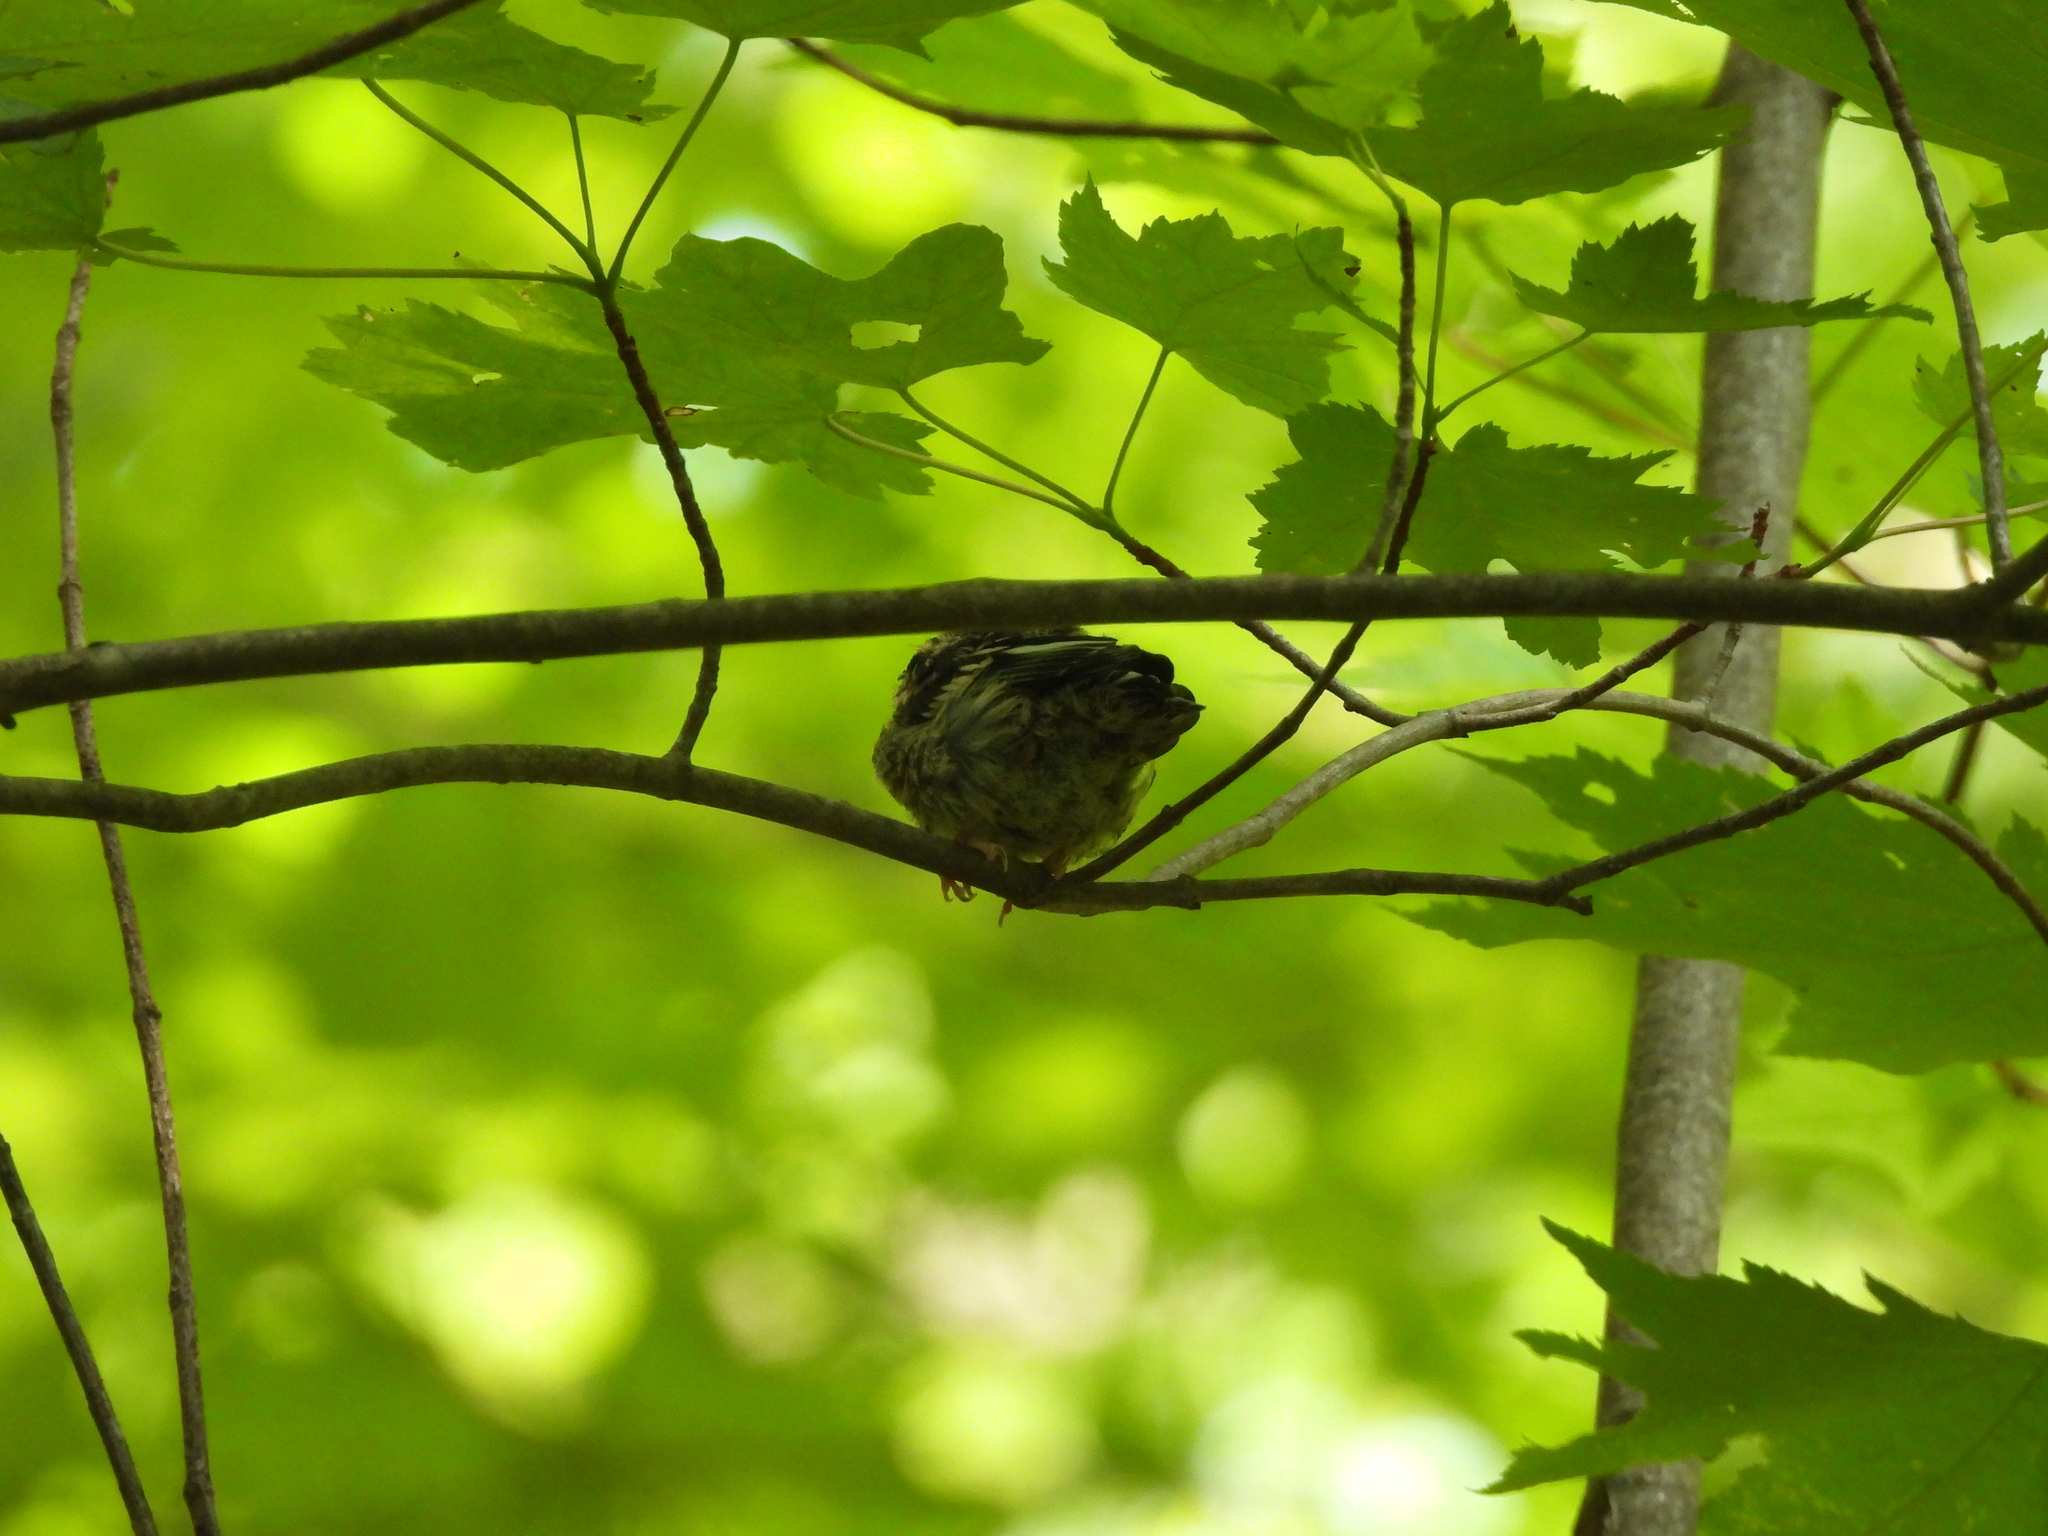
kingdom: Animalia
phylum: Chordata
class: Aves
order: Passeriformes
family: Parulidae
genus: Mniotilta
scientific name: Mniotilta varia
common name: Black-and-white warbler
